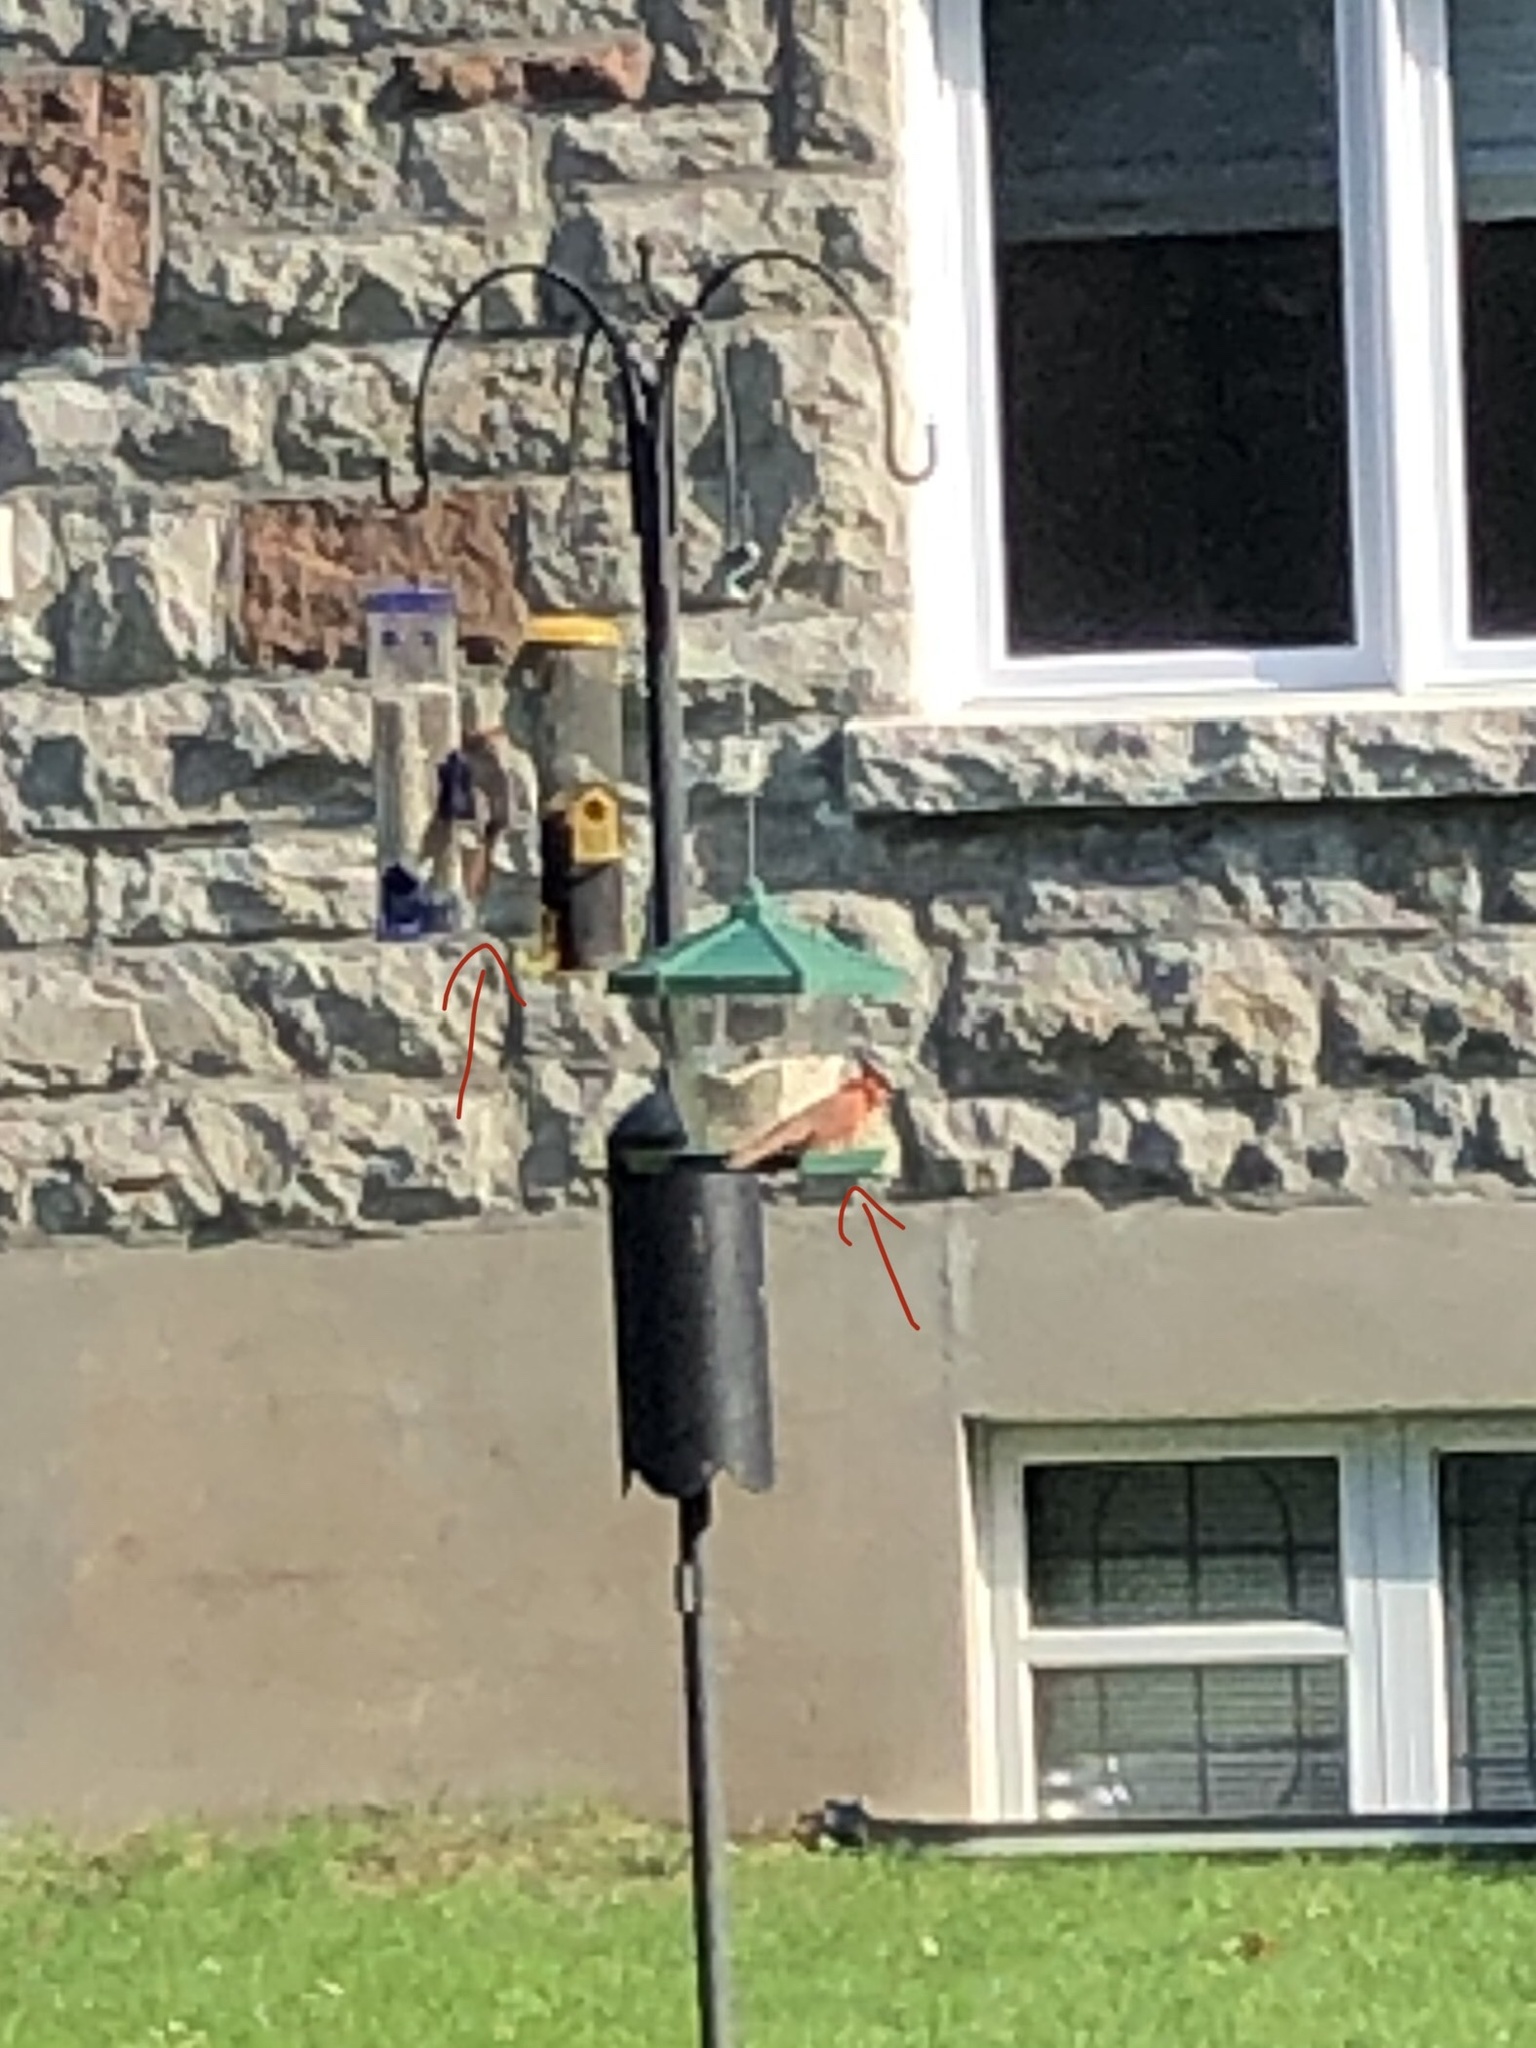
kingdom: Animalia
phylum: Chordata
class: Aves
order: Passeriformes
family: Cardinalidae
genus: Cardinalis
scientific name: Cardinalis cardinalis
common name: Northern cardinal
